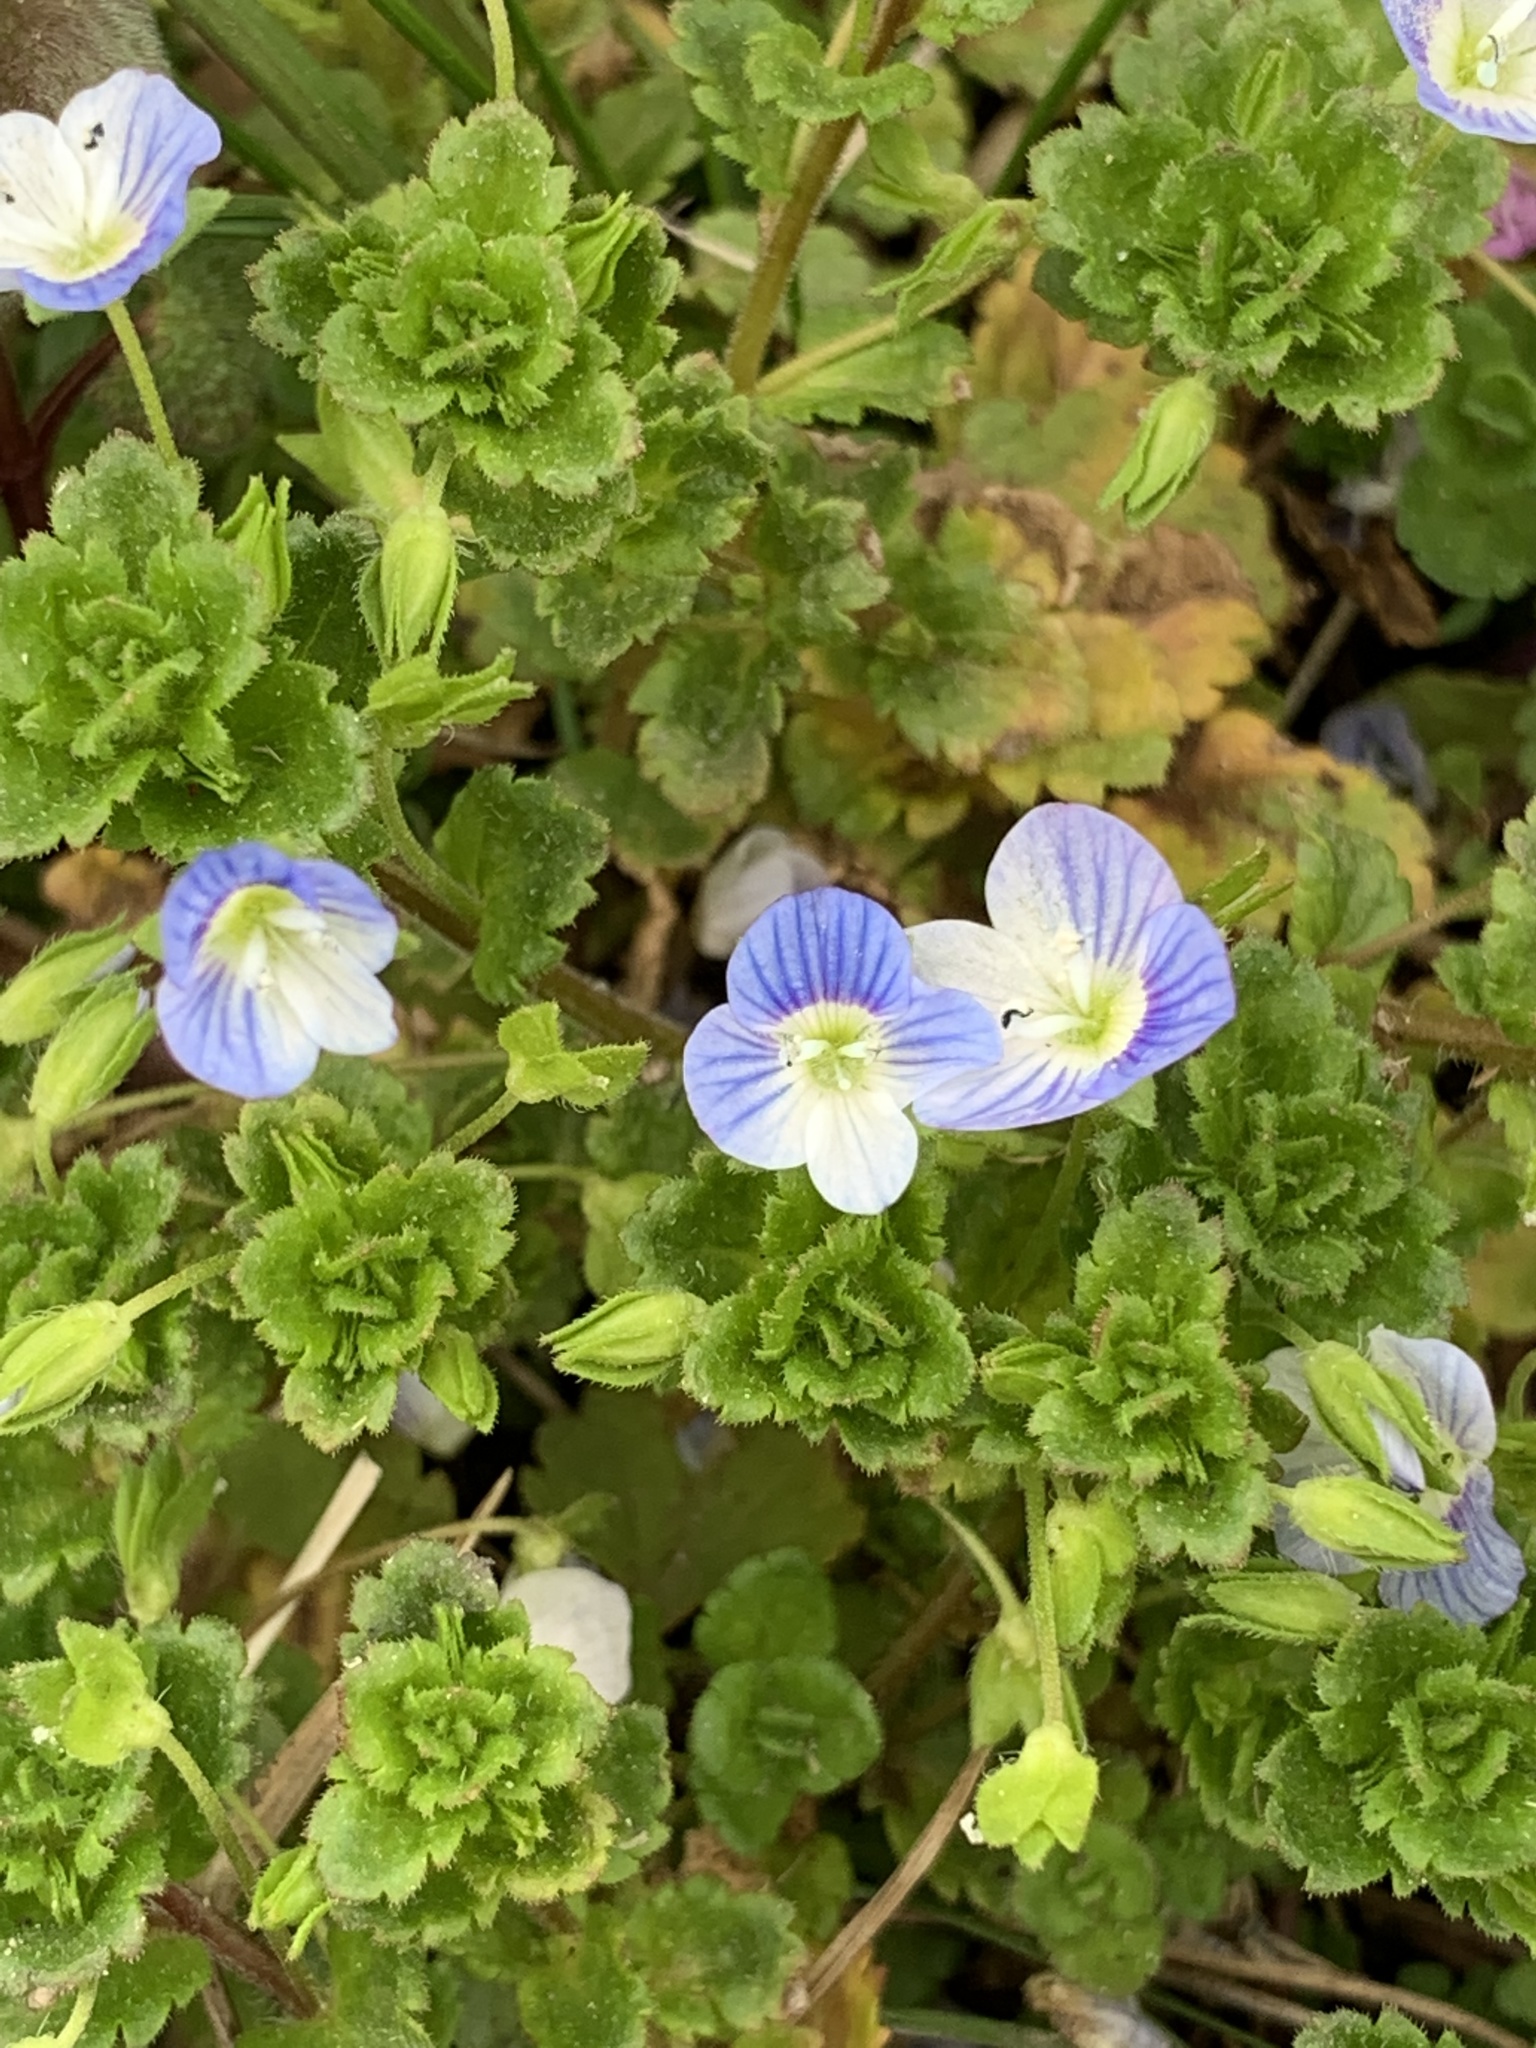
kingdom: Plantae
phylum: Tracheophyta
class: Magnoliopsida
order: Lamiales
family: Plantaginaceae
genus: Veronica
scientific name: Veronica persica
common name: Common field-speedwell
